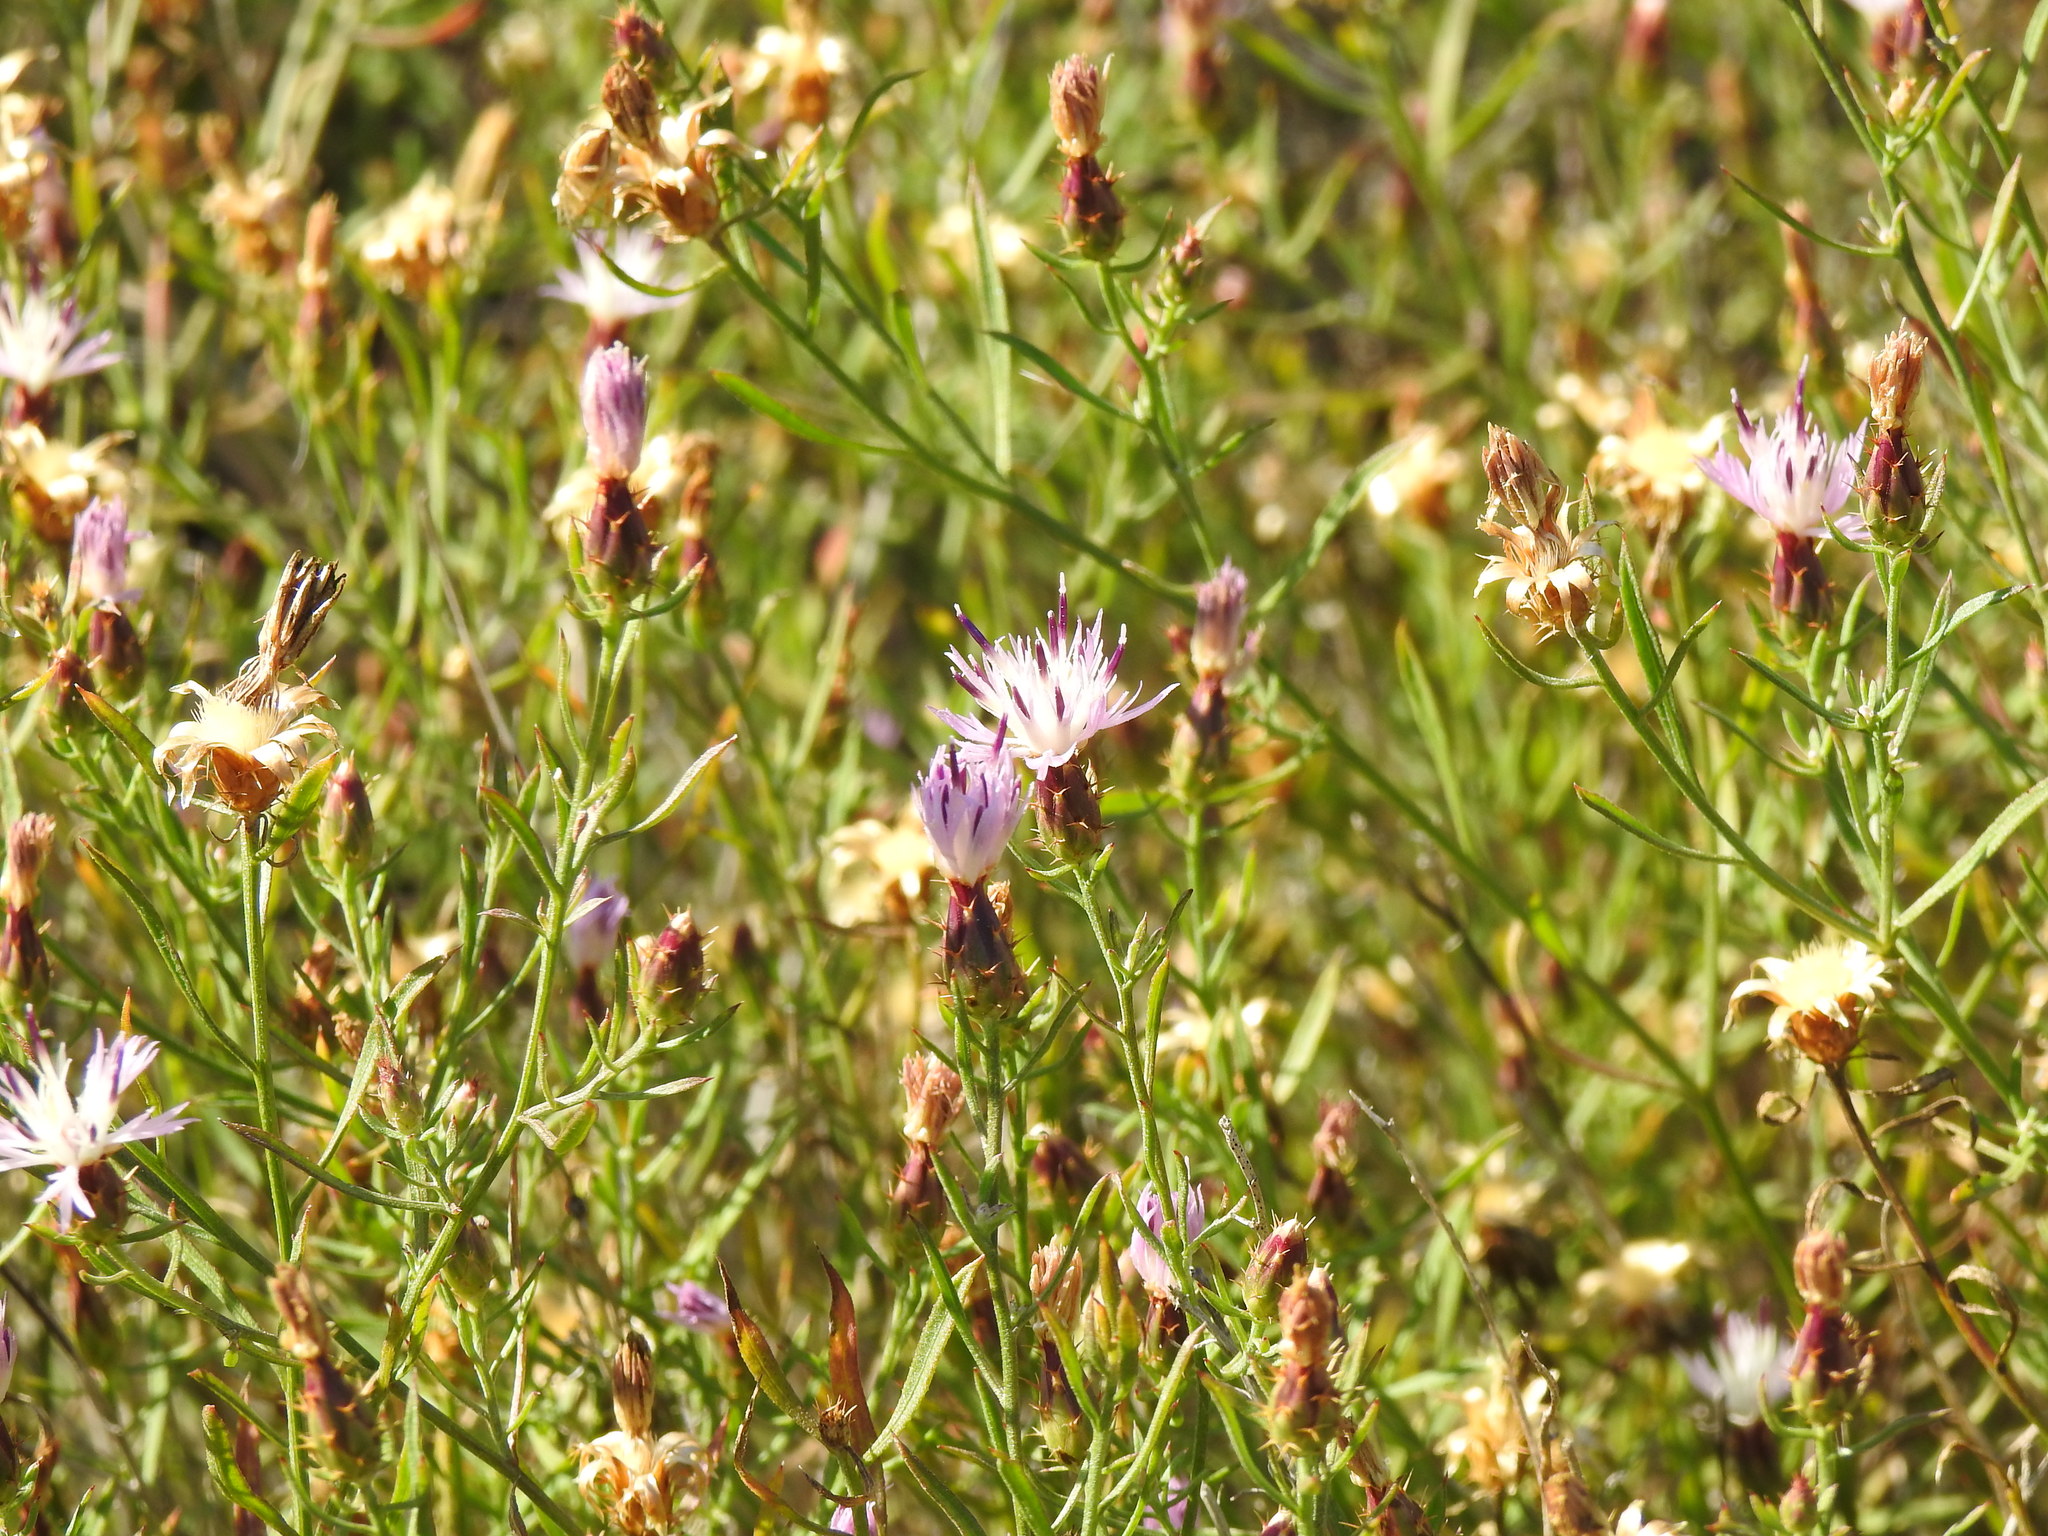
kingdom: Plantae
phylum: Tracheophyta
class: Magnoliopsida
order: Asterales
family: Asteraceae
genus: Centaurea
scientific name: Centaurea aspera
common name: Rough star-thistle
